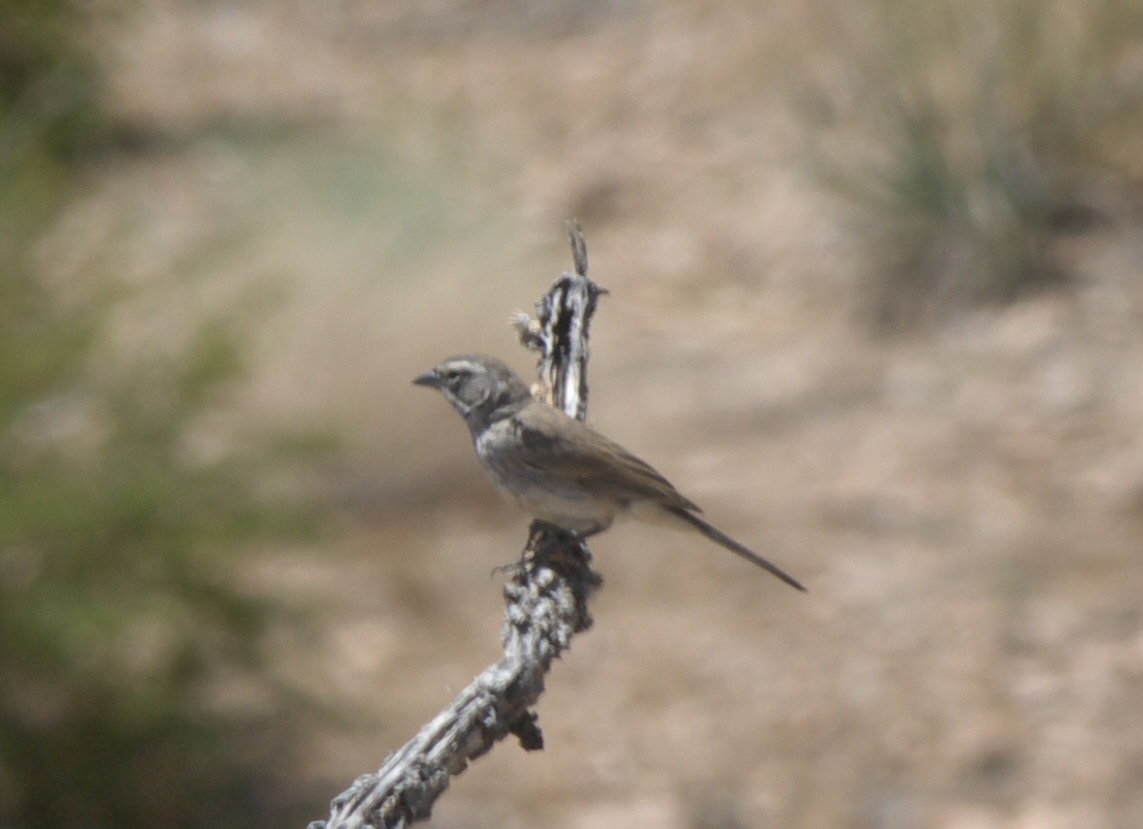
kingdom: Animalia
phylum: Chordata
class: Aves
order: Passeriformes
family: Passerellidae
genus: Amphispiza
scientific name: Amphispiza bilineata
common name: Black-throated sparrow
